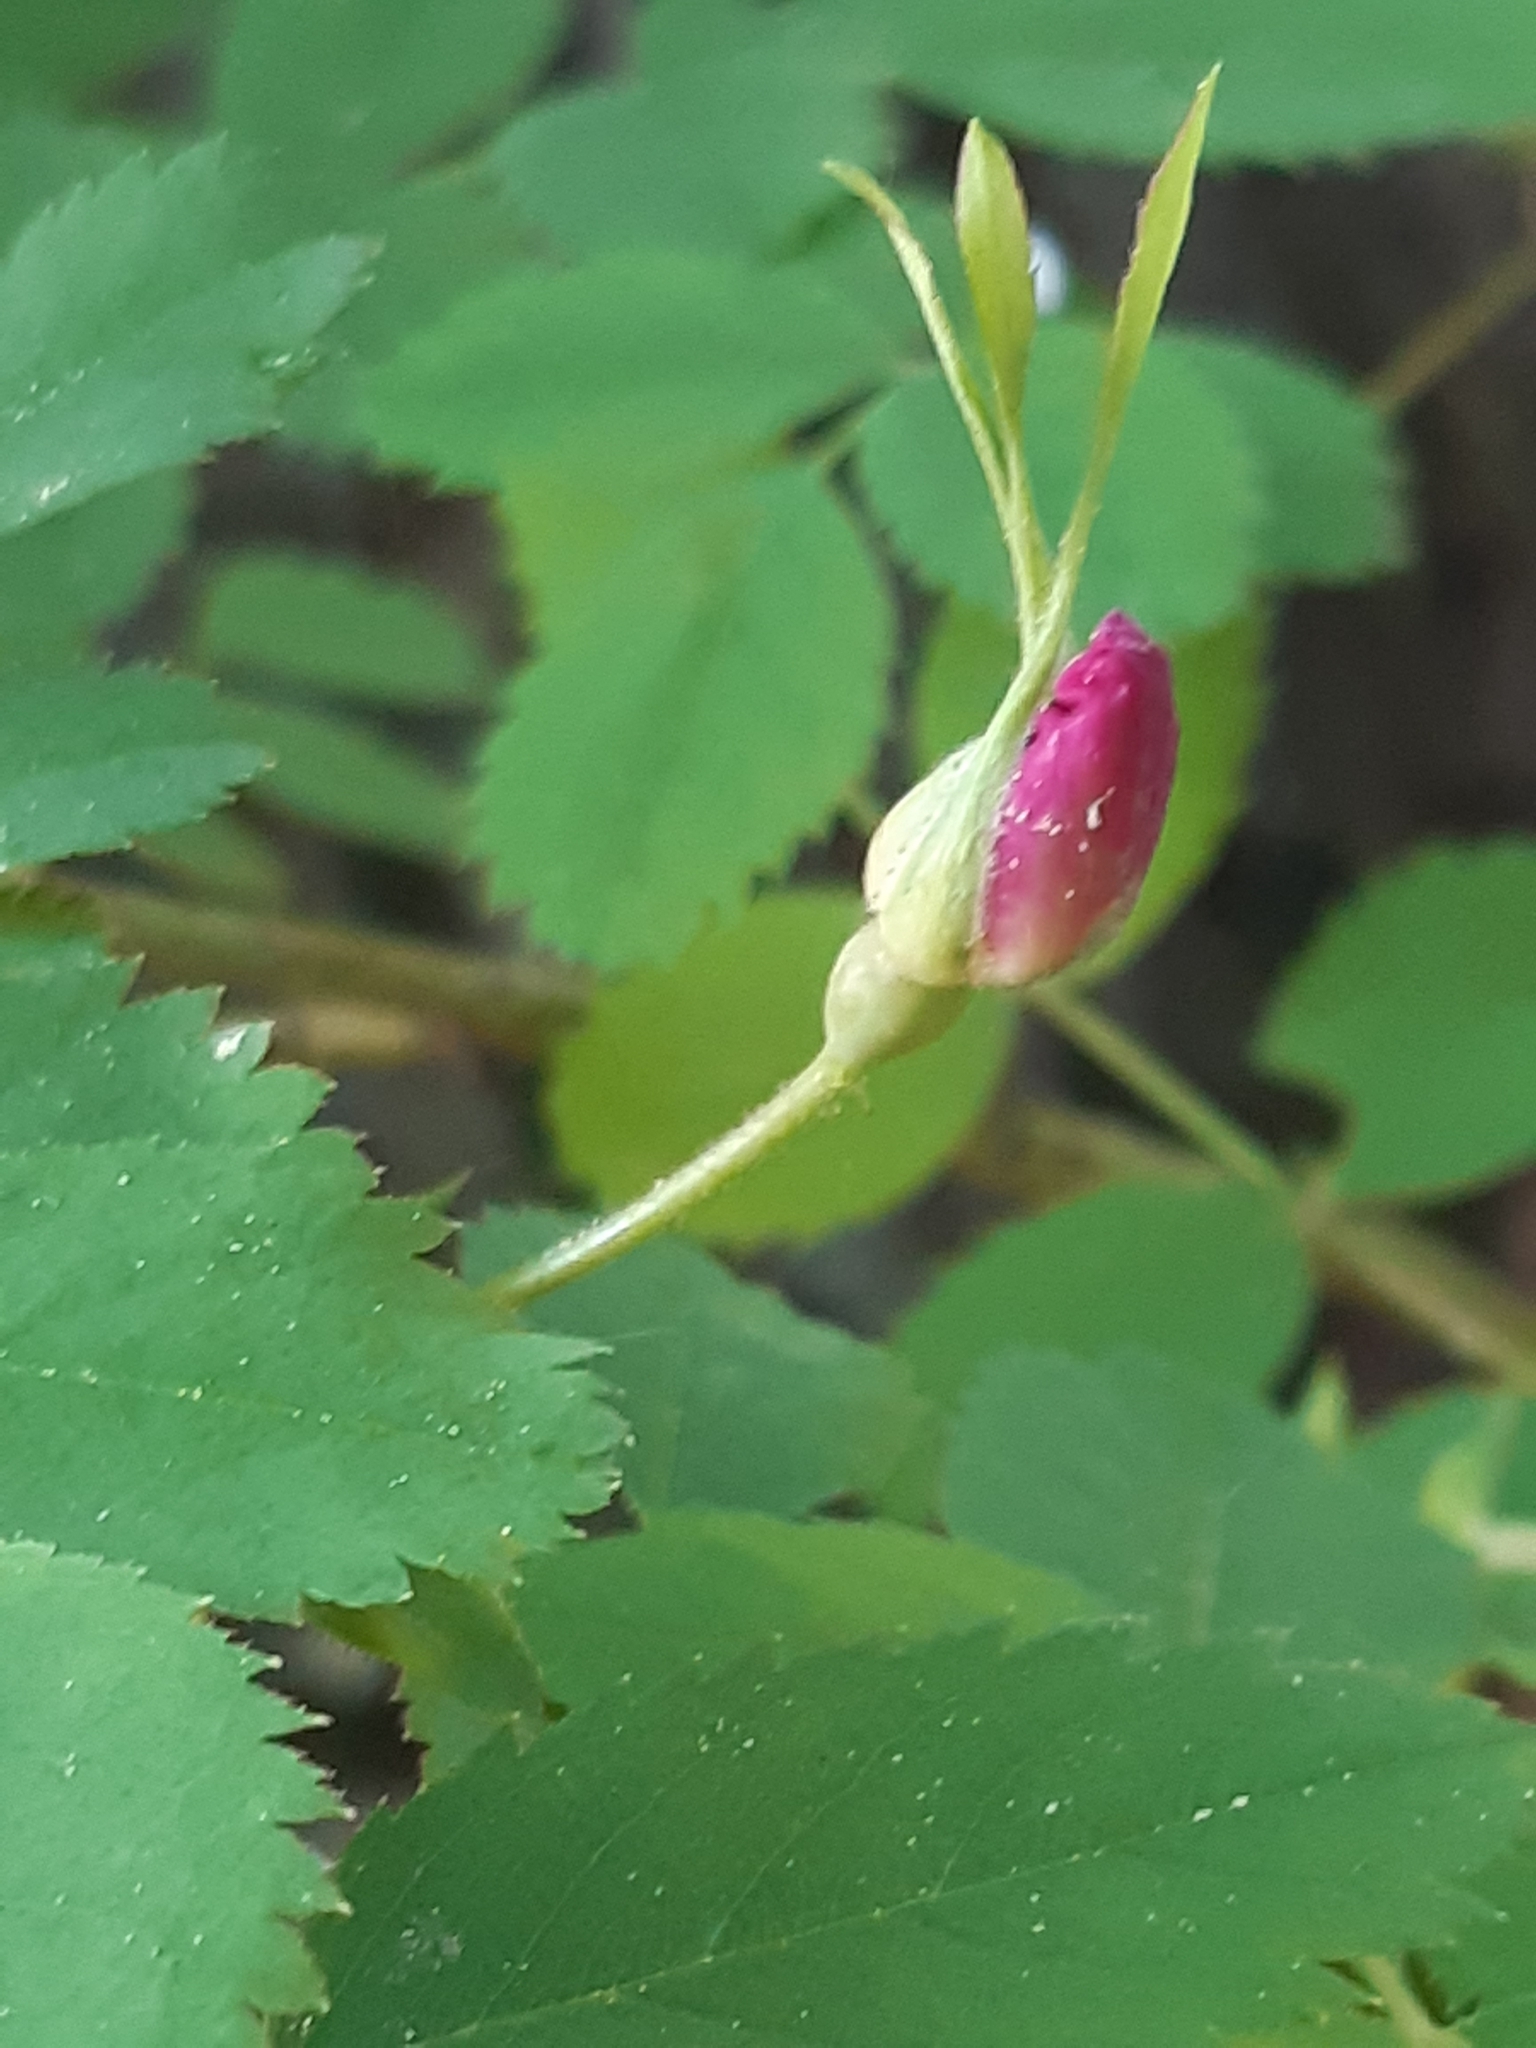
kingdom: Plantae
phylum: Tracheophyta
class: Magnoliopsida
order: Rosales
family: Rosaceae
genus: Rosa
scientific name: Rosa pendulina
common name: Alpine rose
